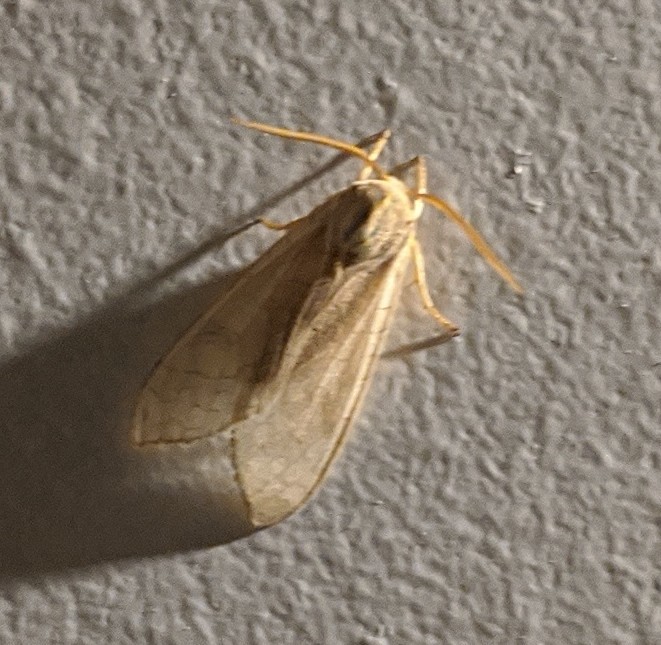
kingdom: Animalia
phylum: Arthropoda
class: Insecta
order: Lepidoptera
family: Erebidae
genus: Halysidota
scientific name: Halysidota
